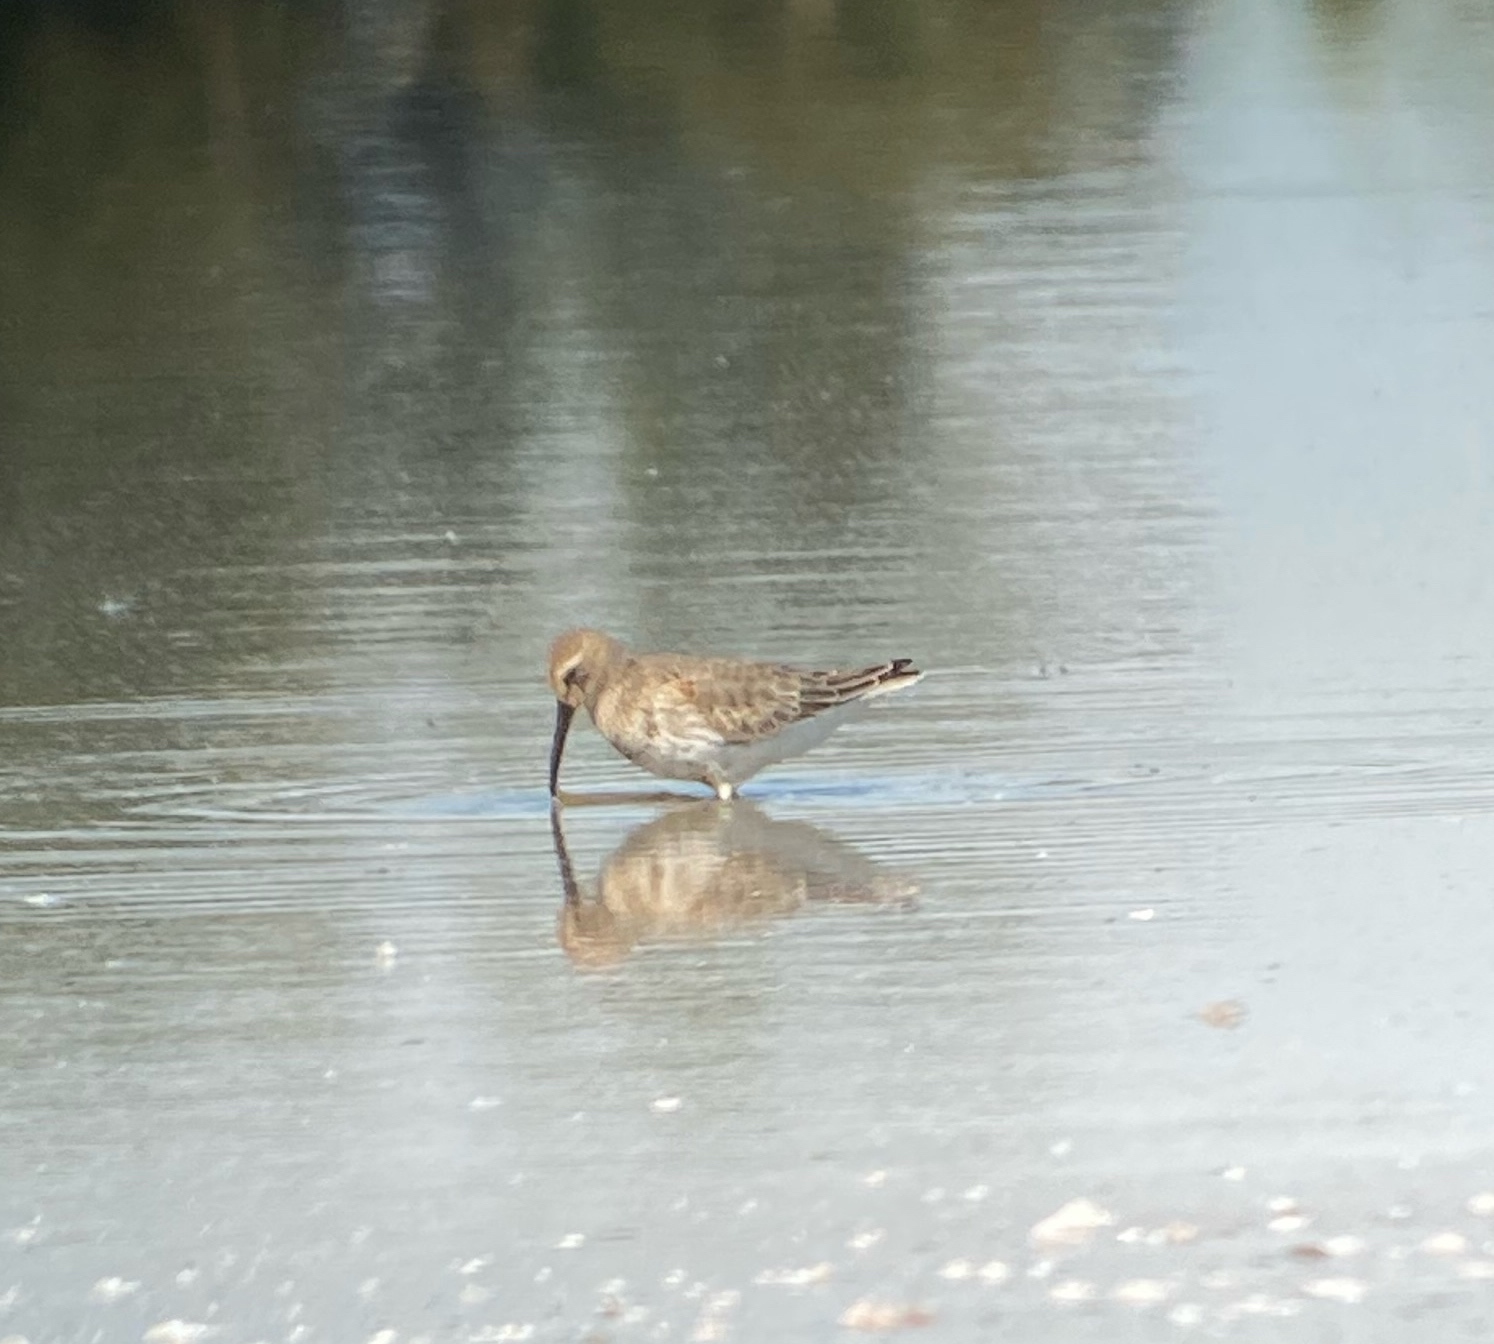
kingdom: Animalia
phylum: Chordata
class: Aves
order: Charadriiformes
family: Scolopacidae
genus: Calidris
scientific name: Calidris alpina
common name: Dunlin
